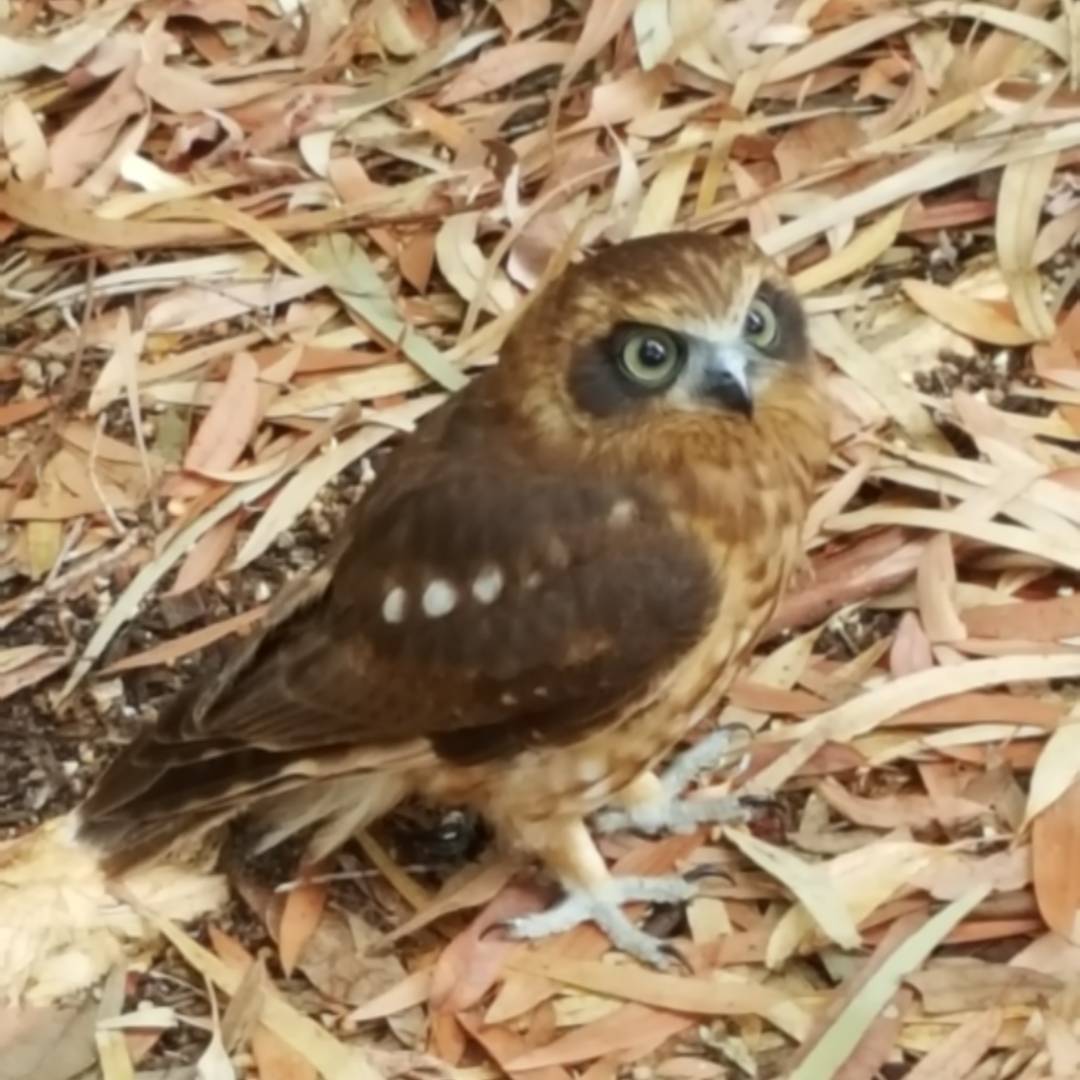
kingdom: Animalia
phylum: Chordata
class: Aves
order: Strigiformes
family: Strigidae
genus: Ninox
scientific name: Ninox boobook
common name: Southern boobook
